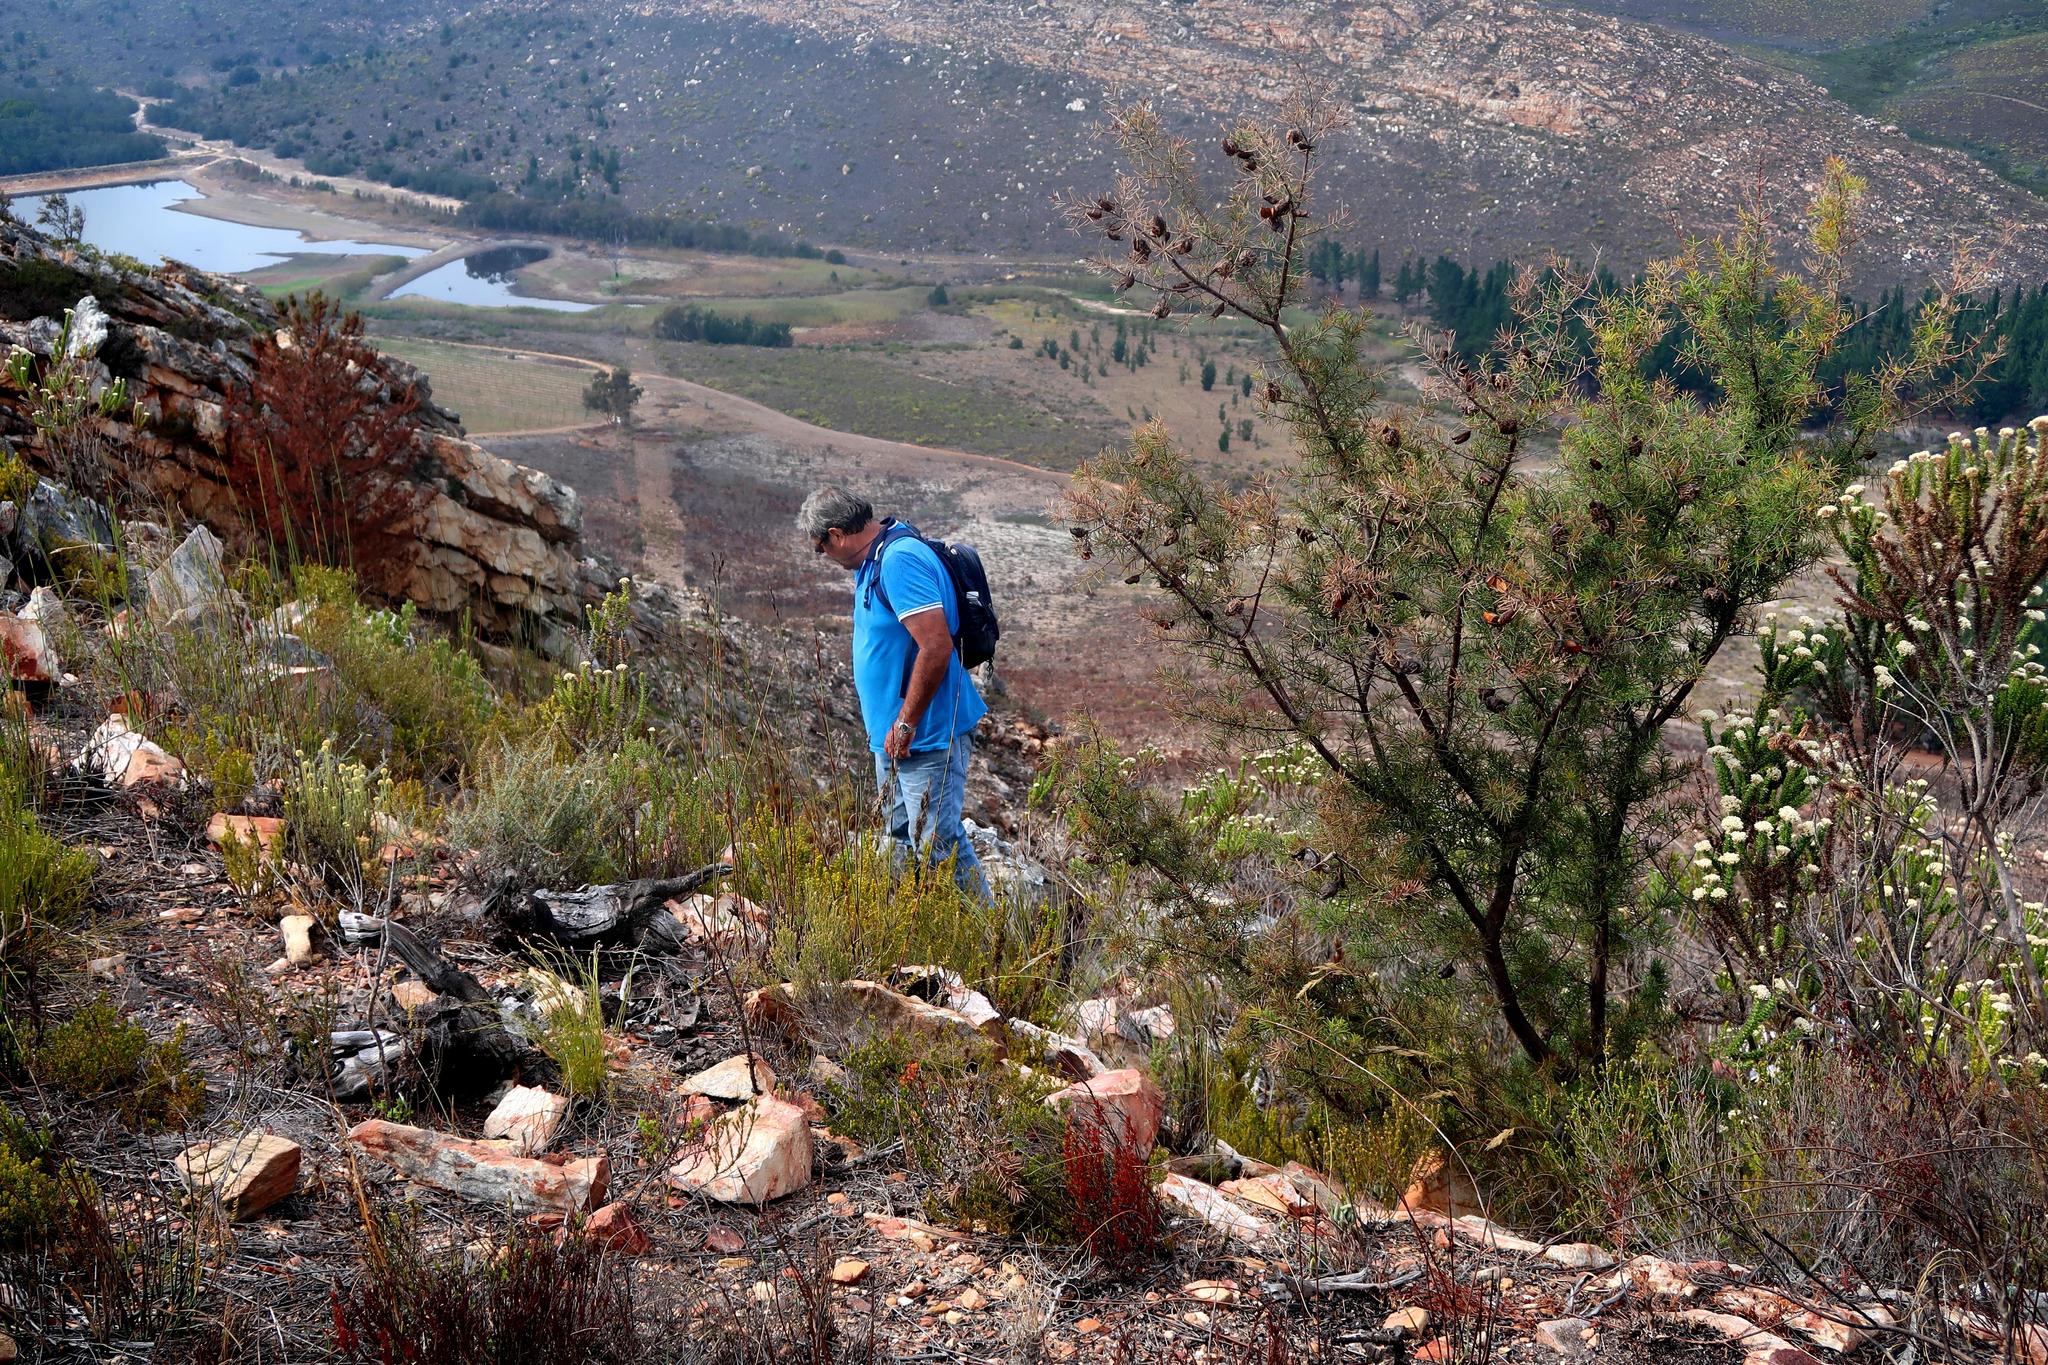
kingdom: Plantae
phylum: Tracheophyta
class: Magnoliopsida
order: Proteales
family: Proteaceae
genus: Hakea
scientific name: Hakea sericea
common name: Needle bush
